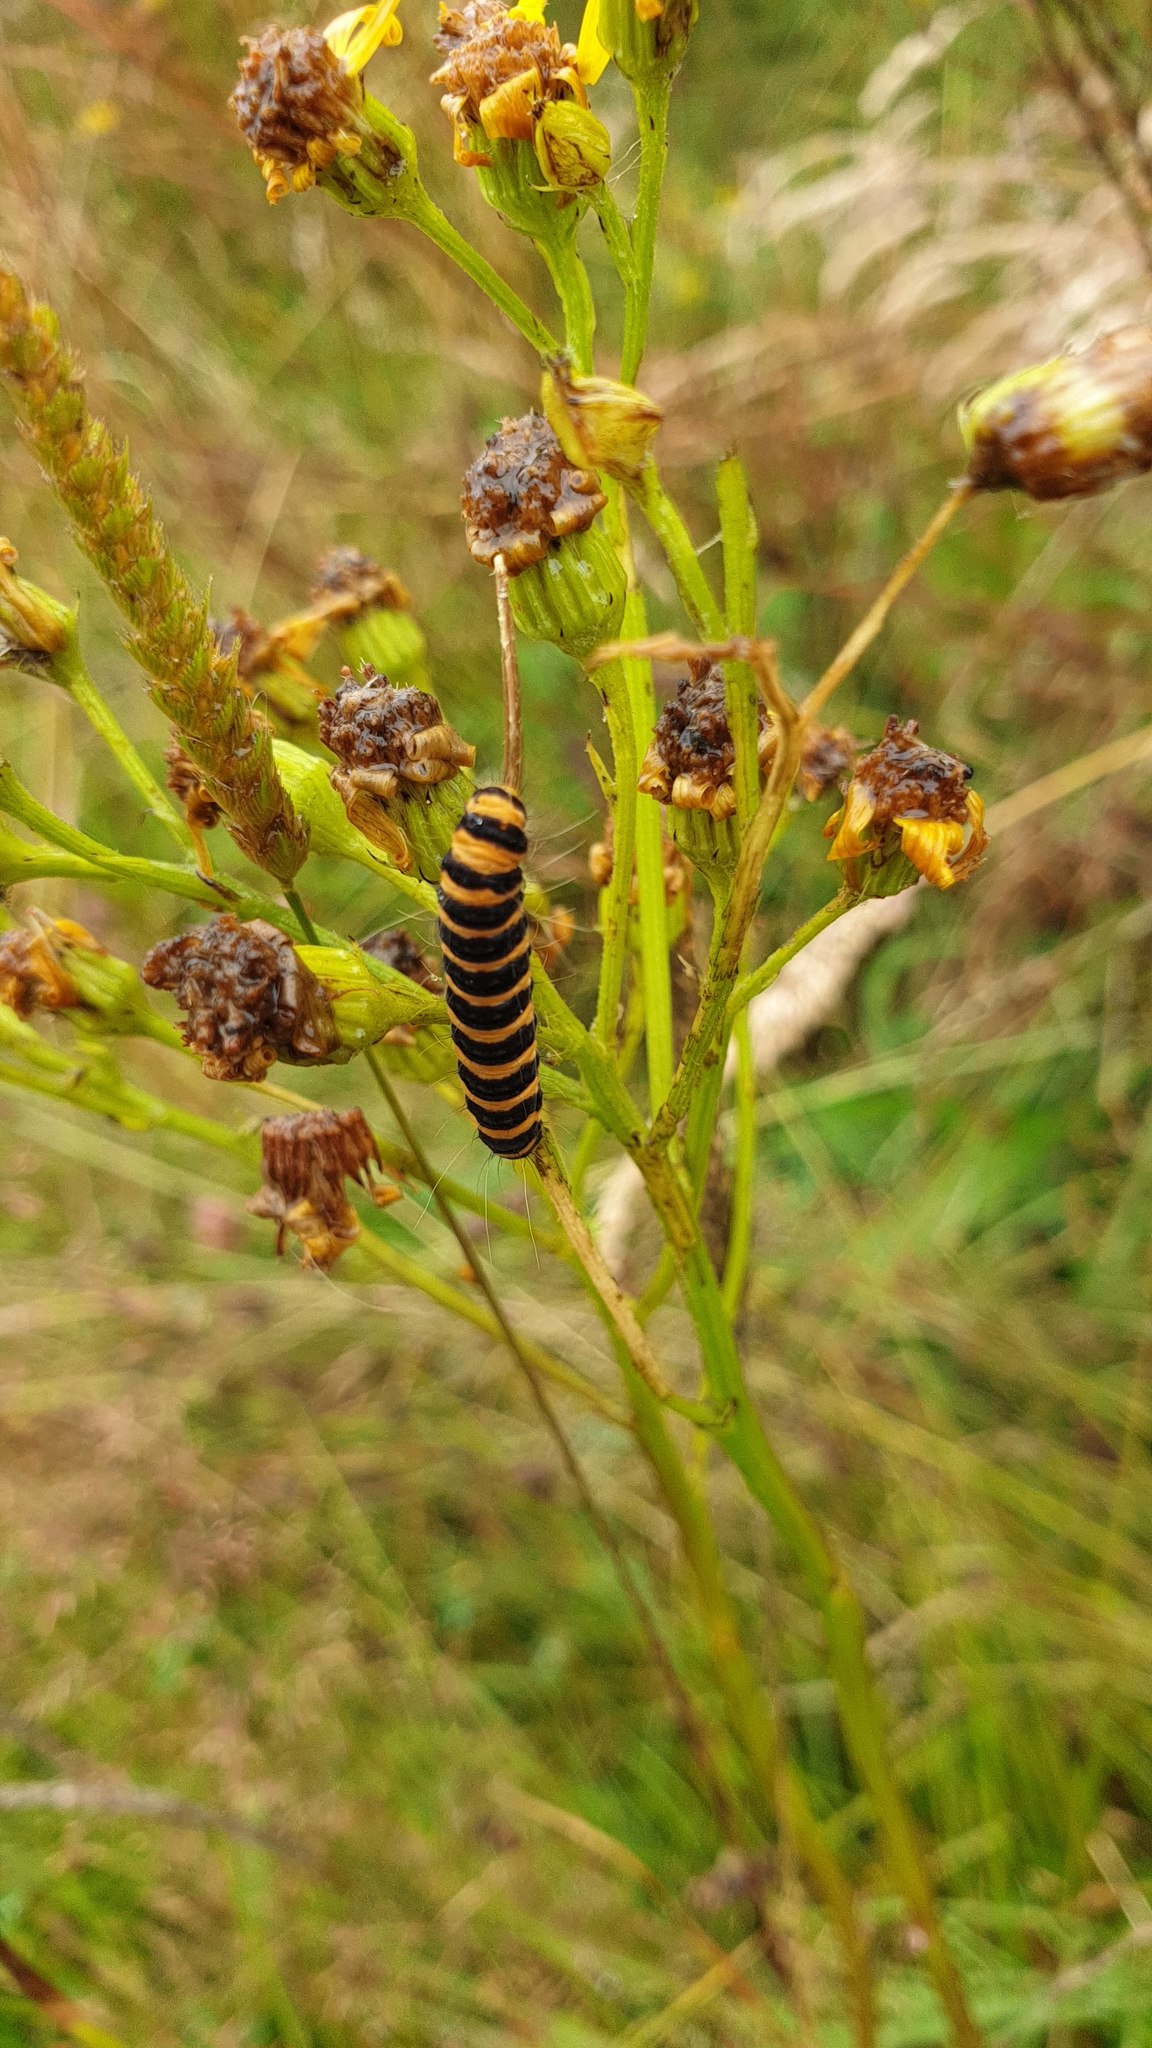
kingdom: Animalia
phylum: Arthropoda
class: Insecta
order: Lepidoptera
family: Erebidae
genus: Tyria
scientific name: Tyria jacobaeae
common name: Cinnabar
